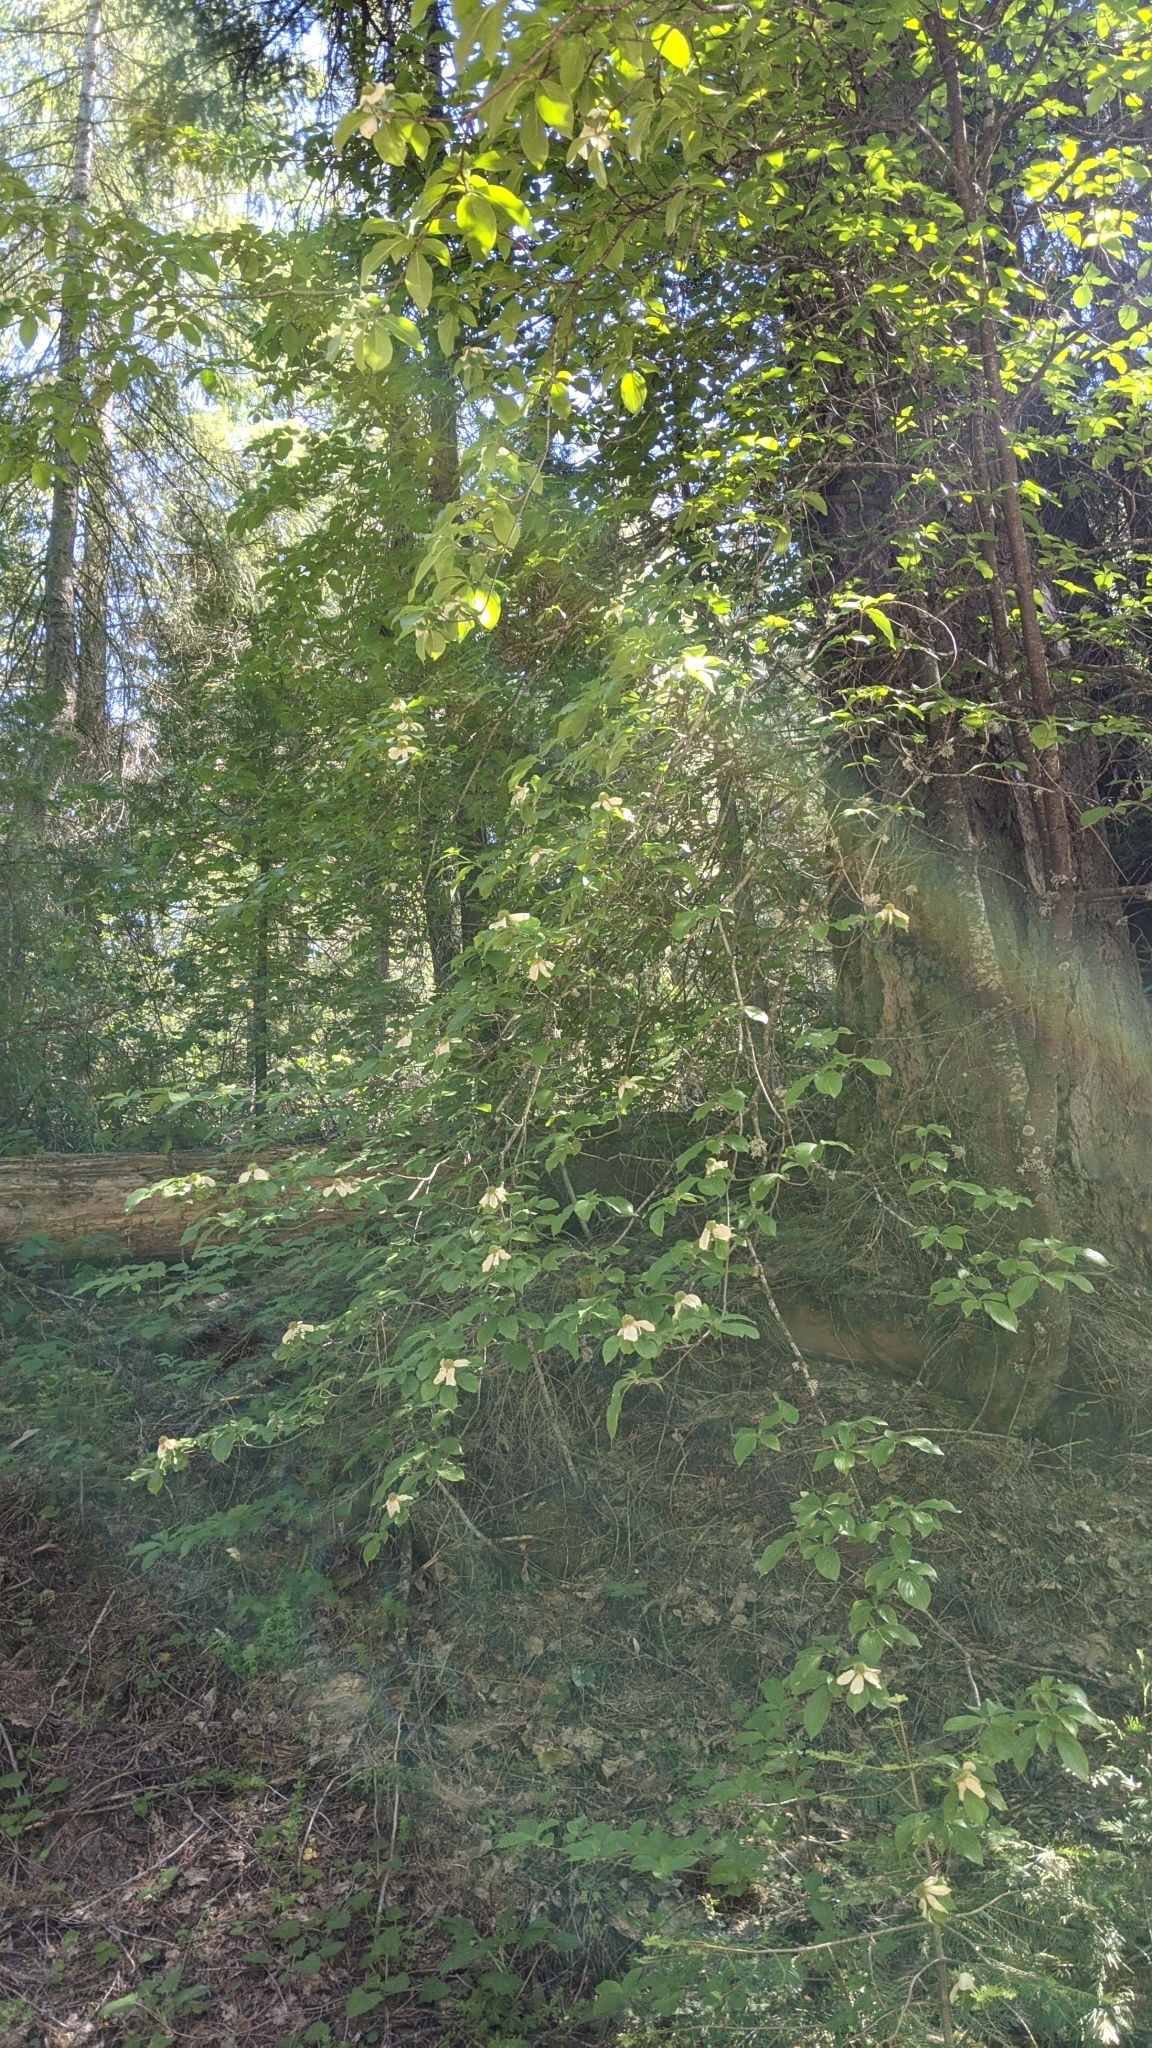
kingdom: Plantae
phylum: Tracheophyta
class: Magnoliopsida
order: Cornales
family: Cornaceae
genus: Cornus
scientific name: Cornus nuttallii
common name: Pacific dogwood
